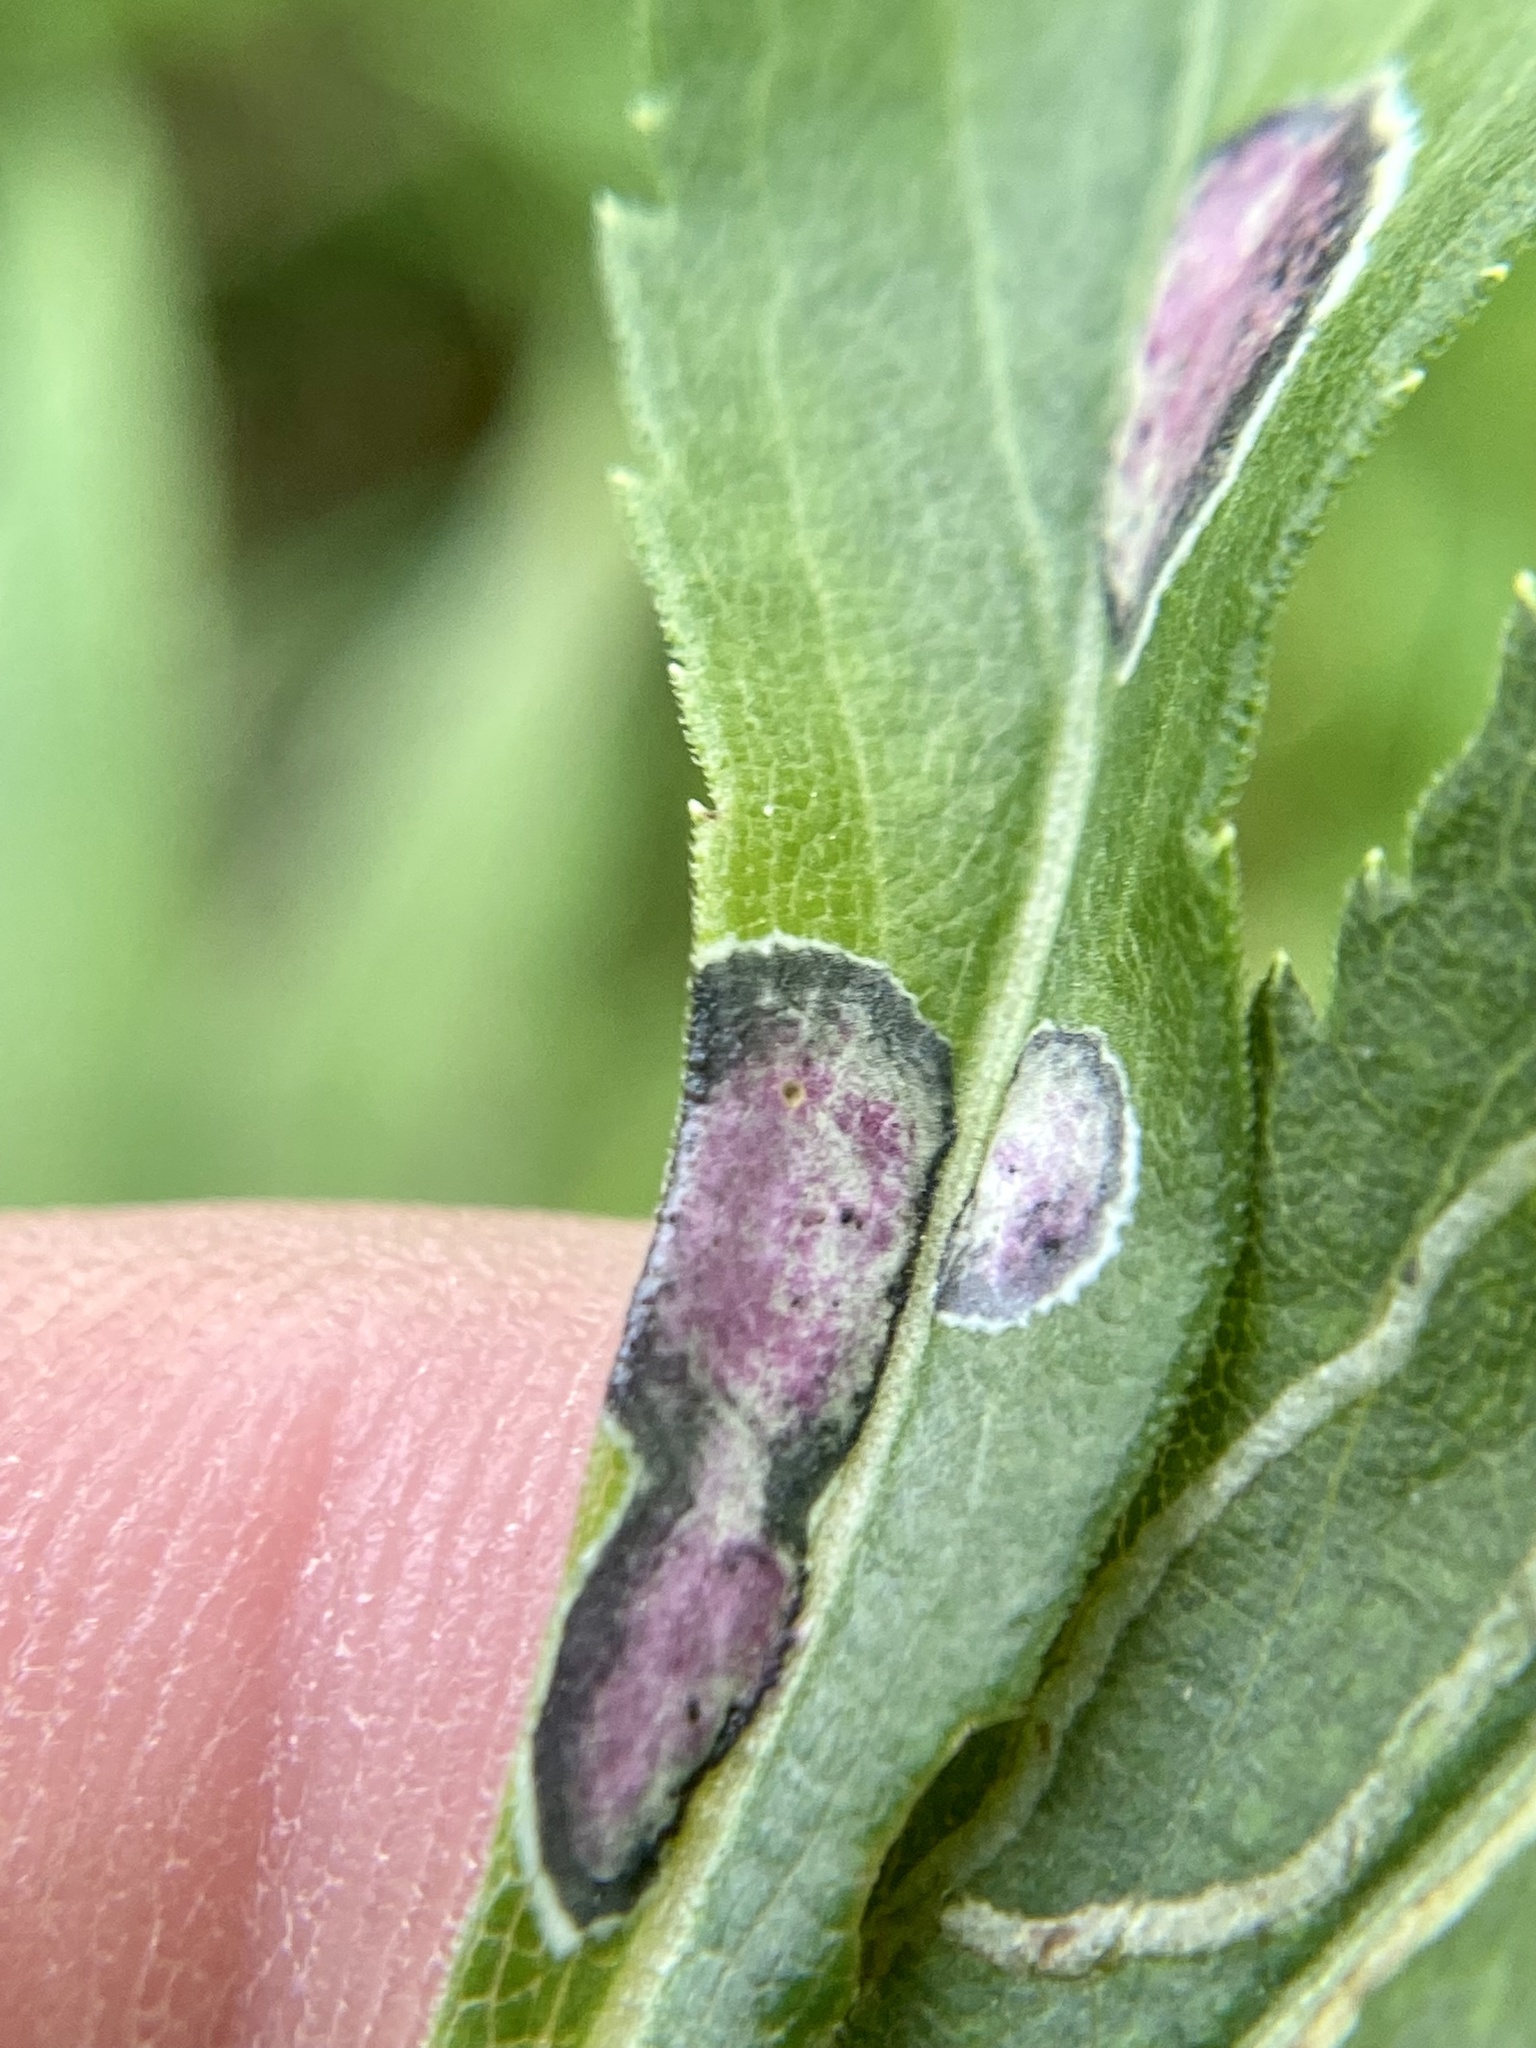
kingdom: Animalia
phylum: Arthropoda
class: Insecta
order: Diptera
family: Cecidomyiidae
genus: Asteromyia
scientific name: Asteromyia carbonifera
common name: Carbonifera goldenrod gall midge
